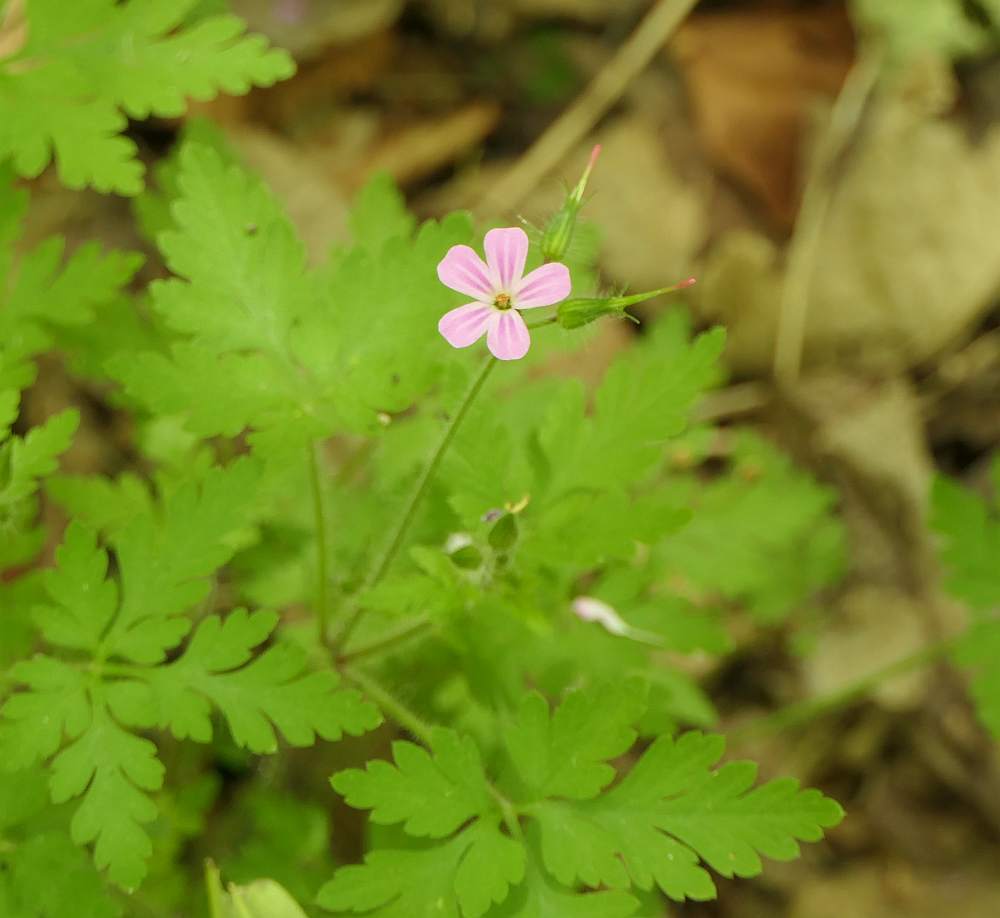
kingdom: Plantae
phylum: Tracheophyta
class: Magnoliopsida
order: Geraniales
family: Geraniaceae
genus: Geranium
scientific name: Geranium robertianum
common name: Herb-robert
